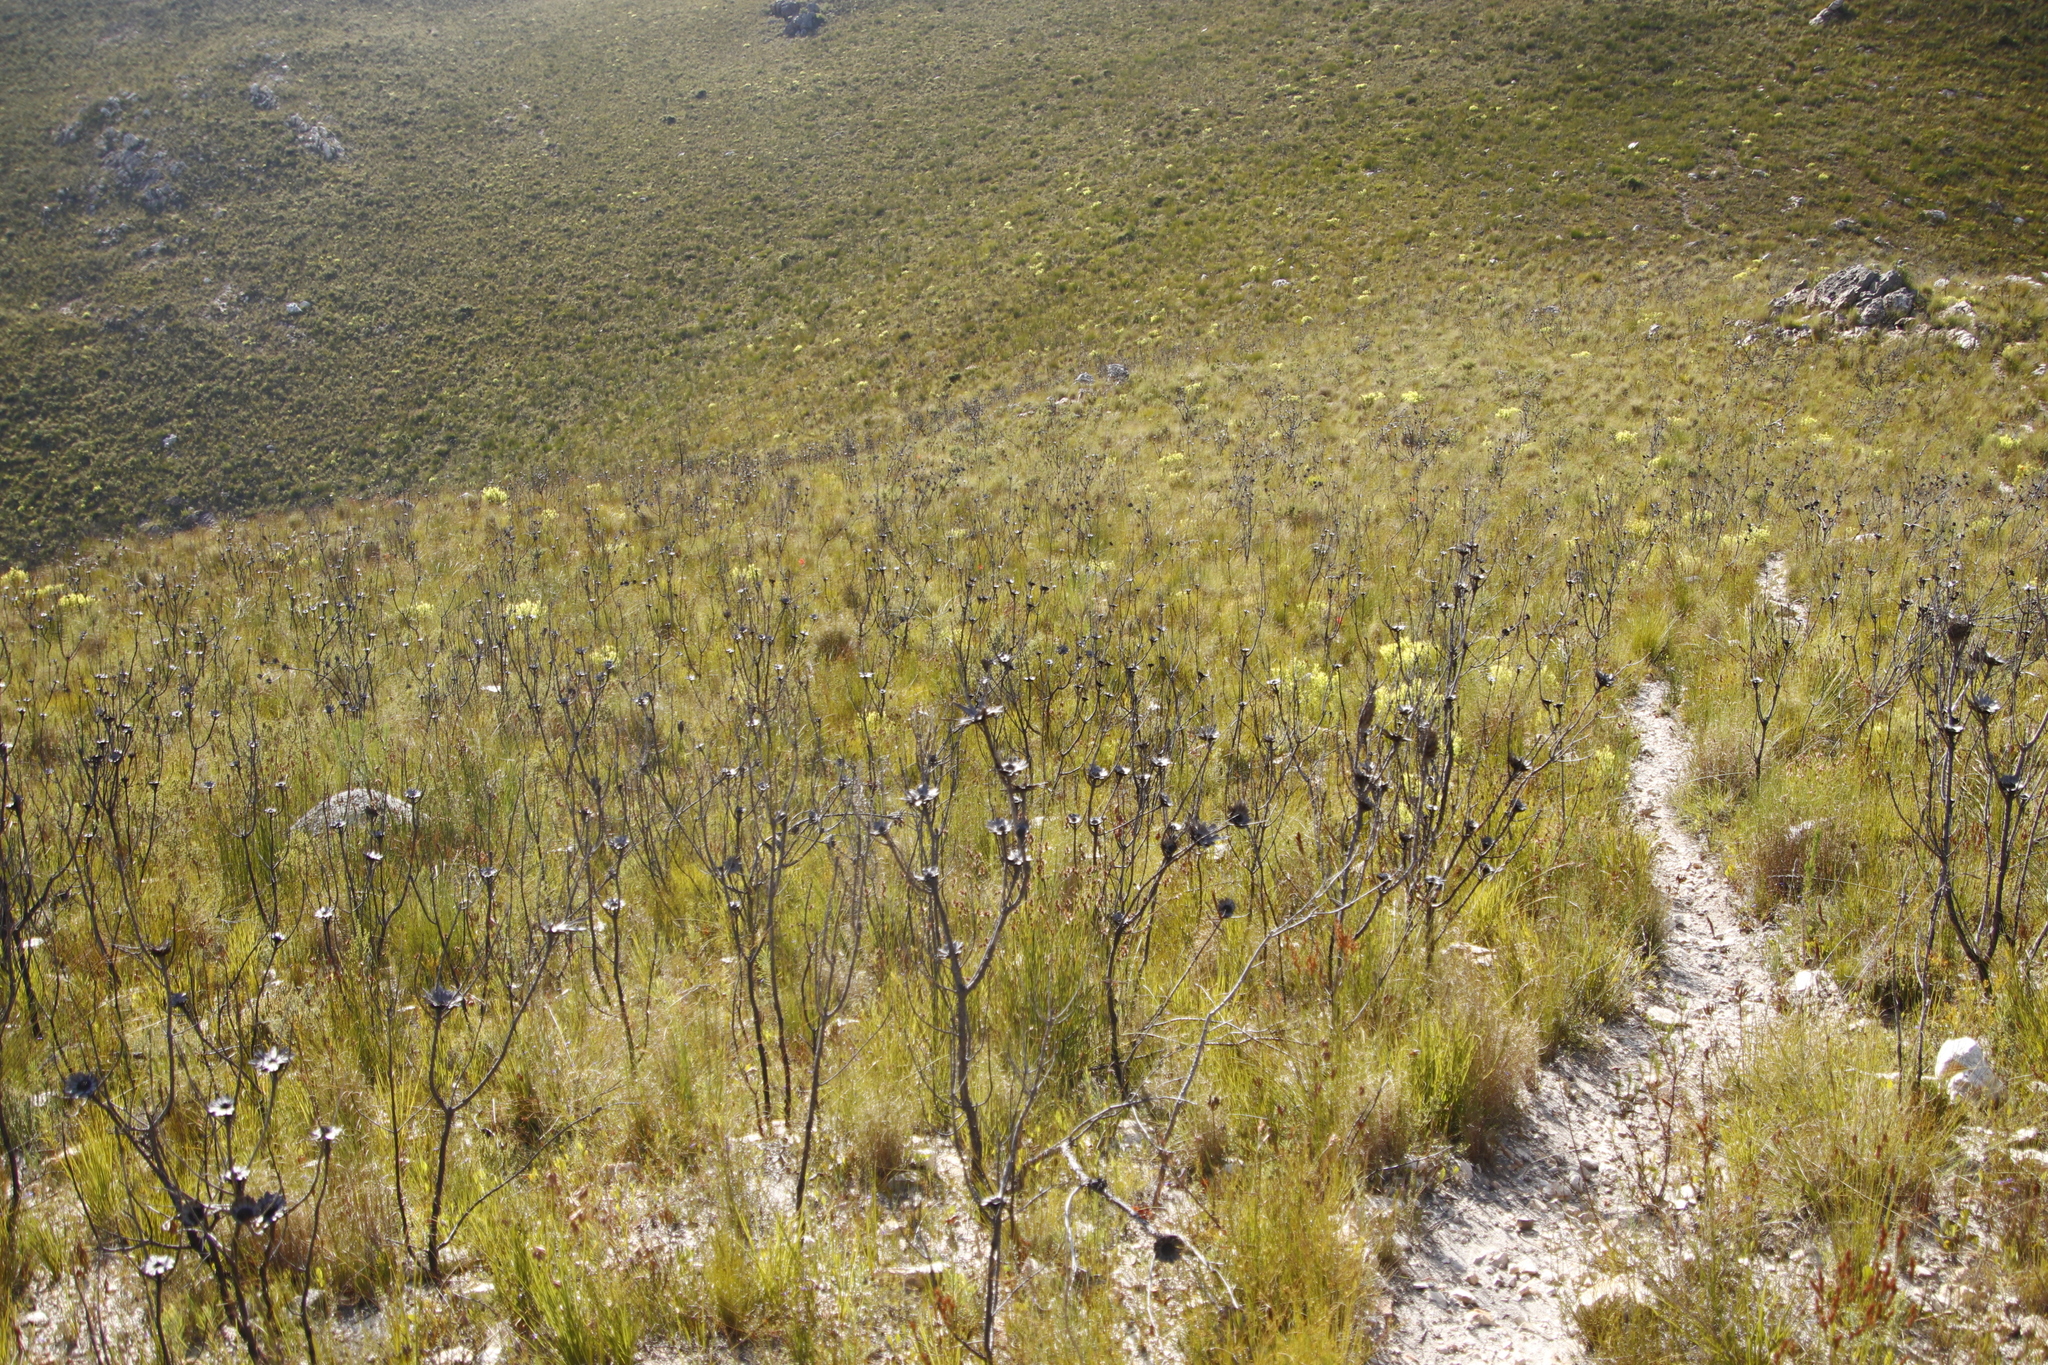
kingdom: Plantae
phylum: Tracheophyta
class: Magnoliopsida
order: Proteales
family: Proteaceae
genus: Protea
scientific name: Protea repens
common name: Sugarbush
